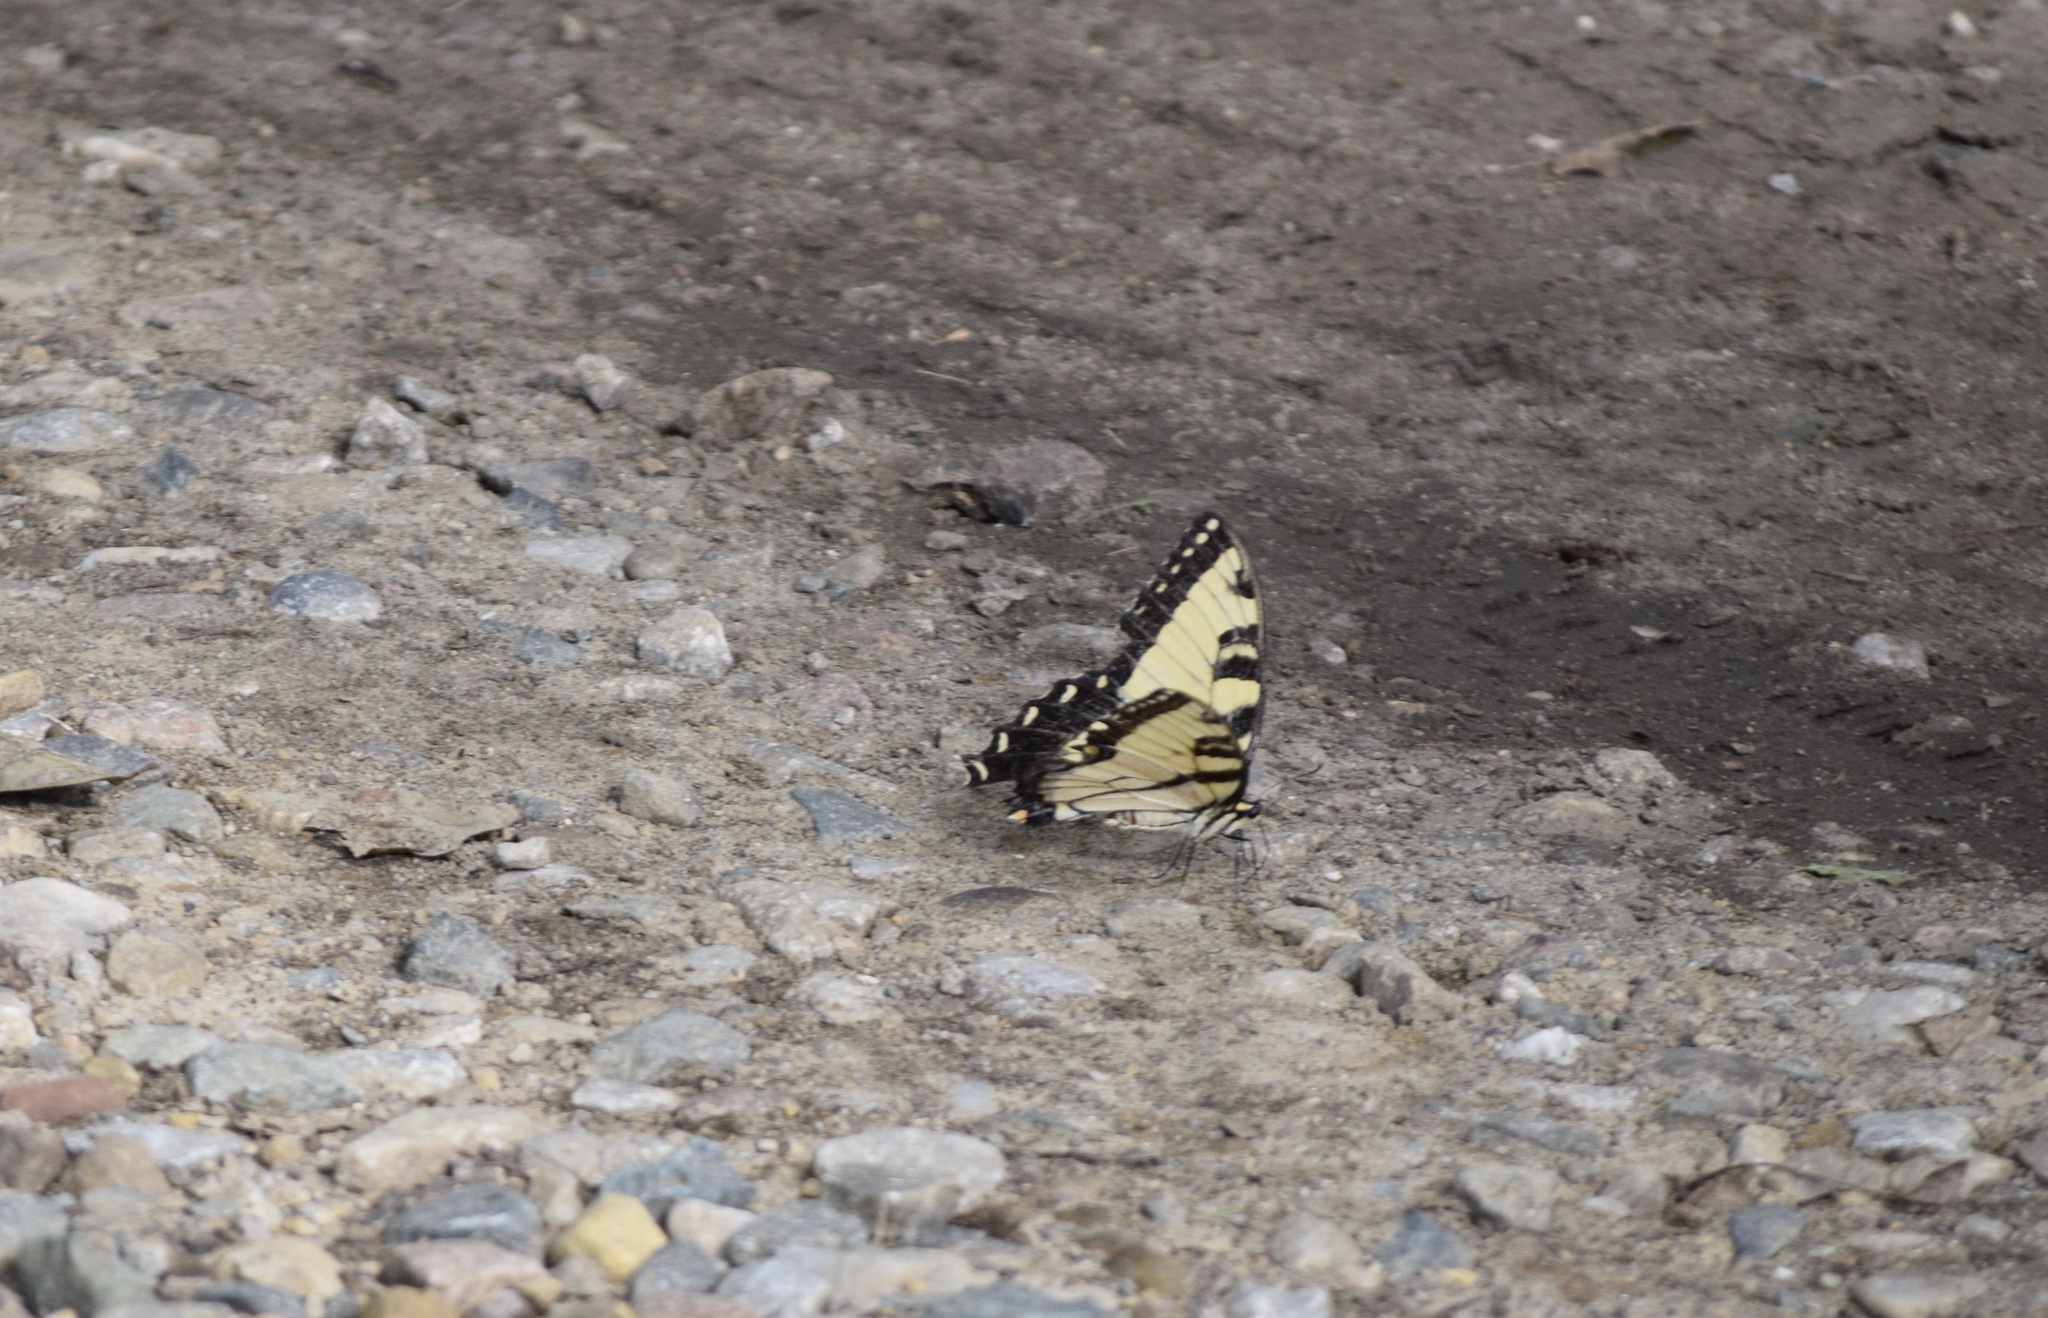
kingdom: Animalia
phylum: Arthropoda
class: Insecta
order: Lepidoptera
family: Papilionidae
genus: Papilio
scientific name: Papilio glaucus
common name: Tiger swallowtail
